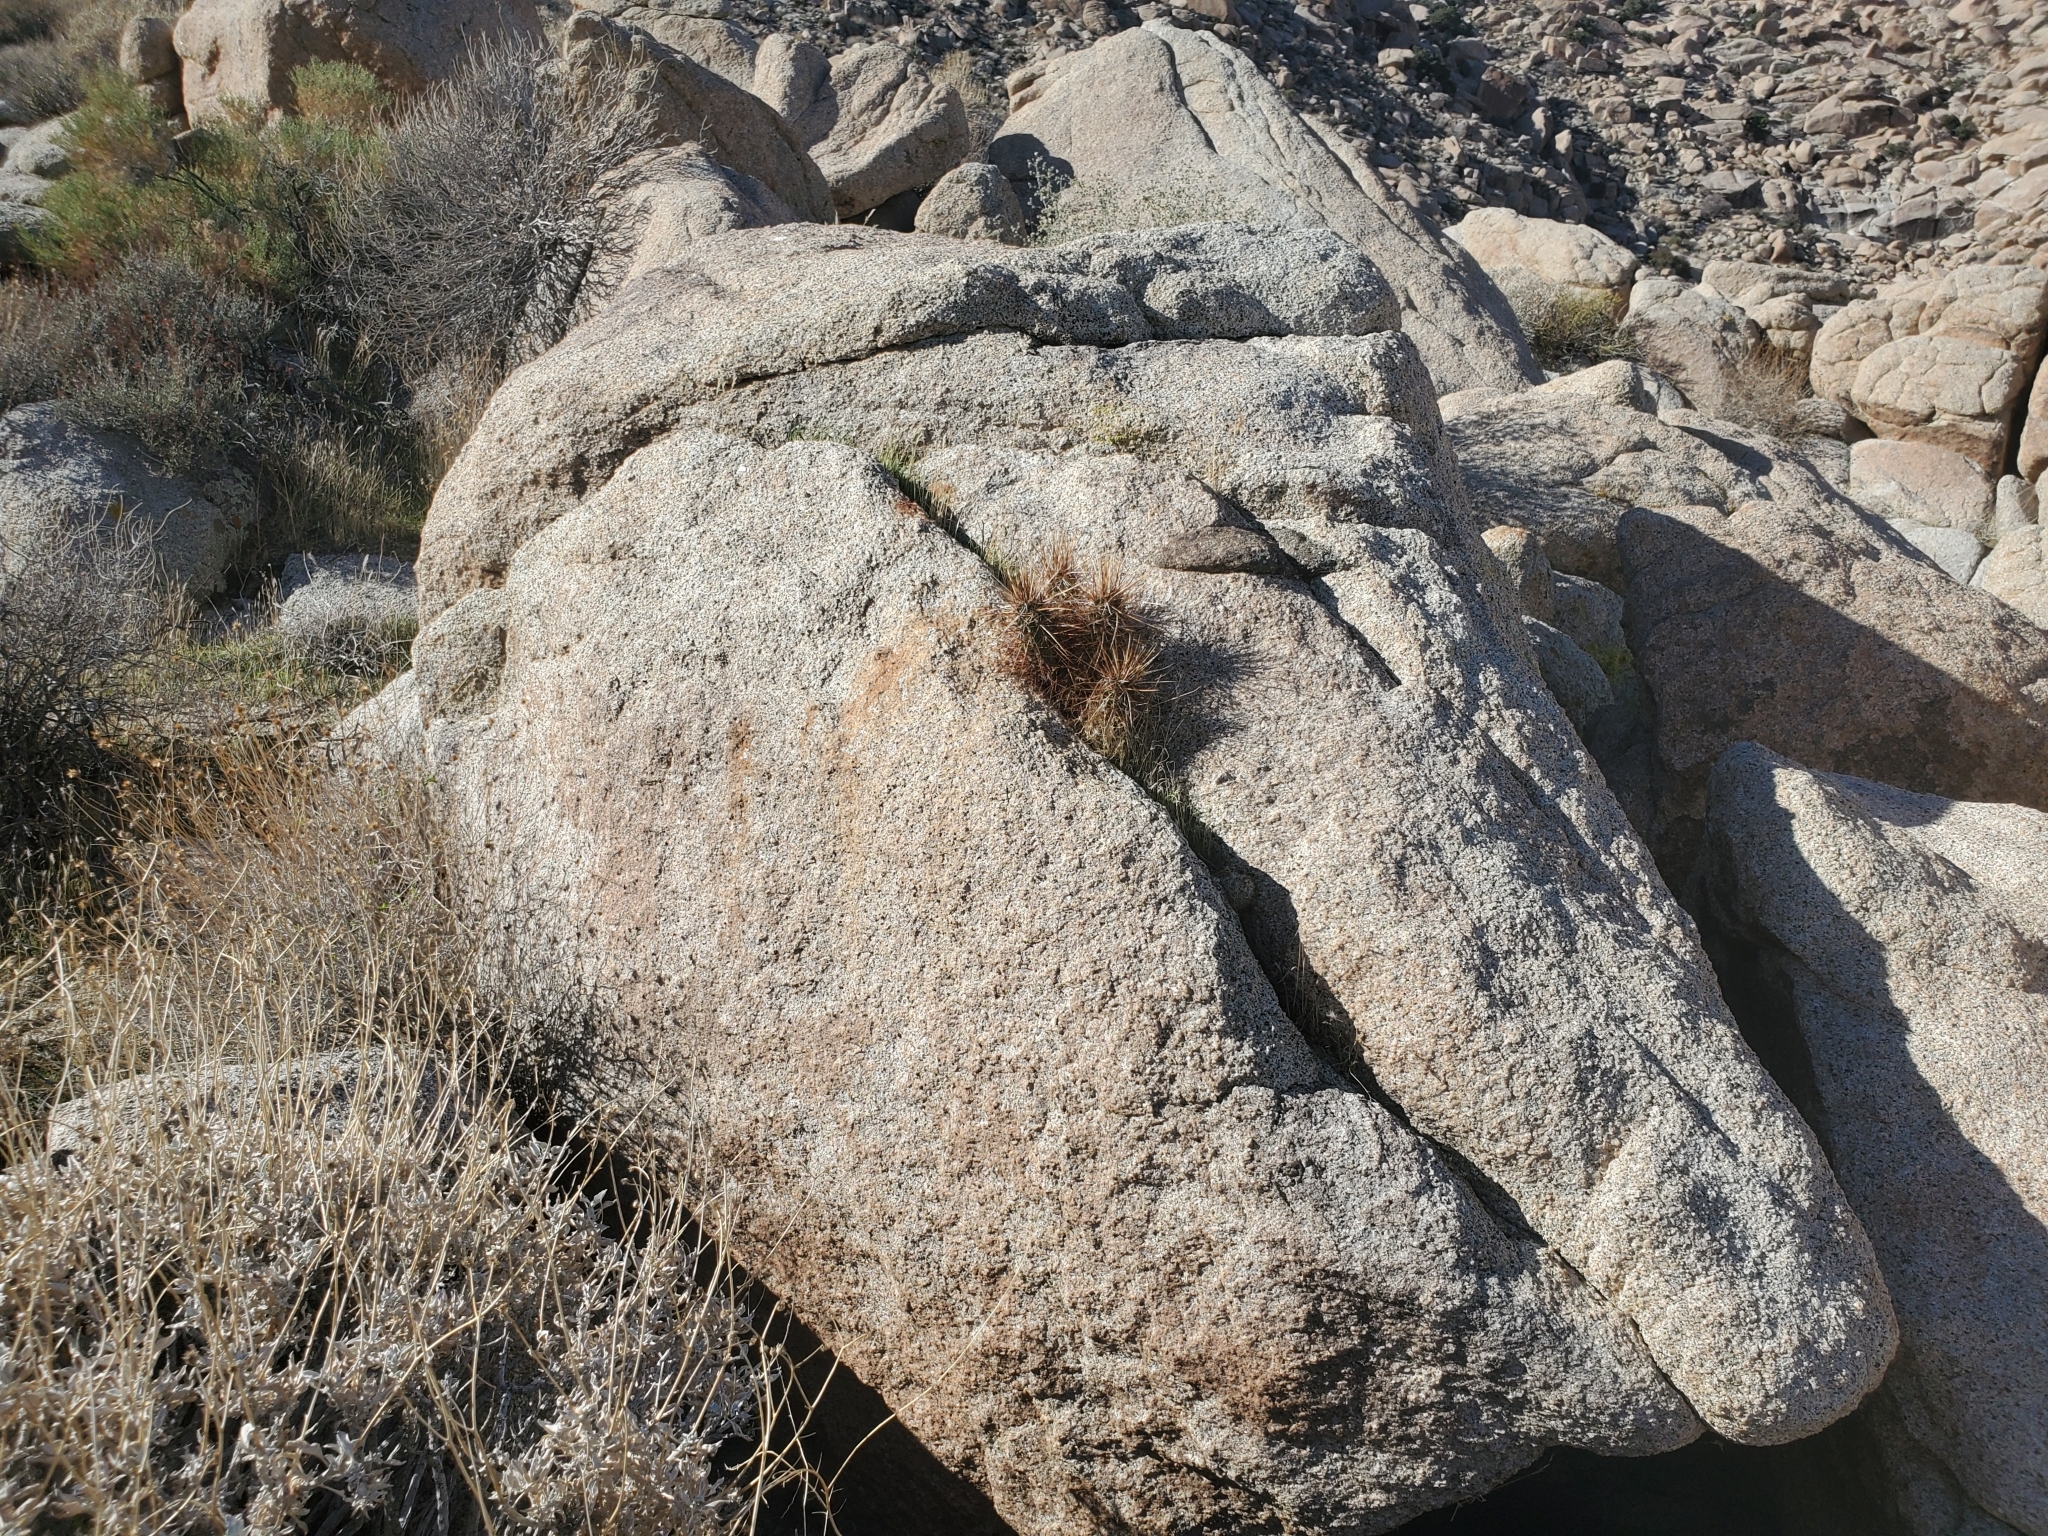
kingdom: Plantae
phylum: Tracheophyta
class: Magnoliopsida
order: Caryophyllales
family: Cactaceae
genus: Echinocereus
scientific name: Echinocereus engelmannii
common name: Engelmann's hedgehog cactus
